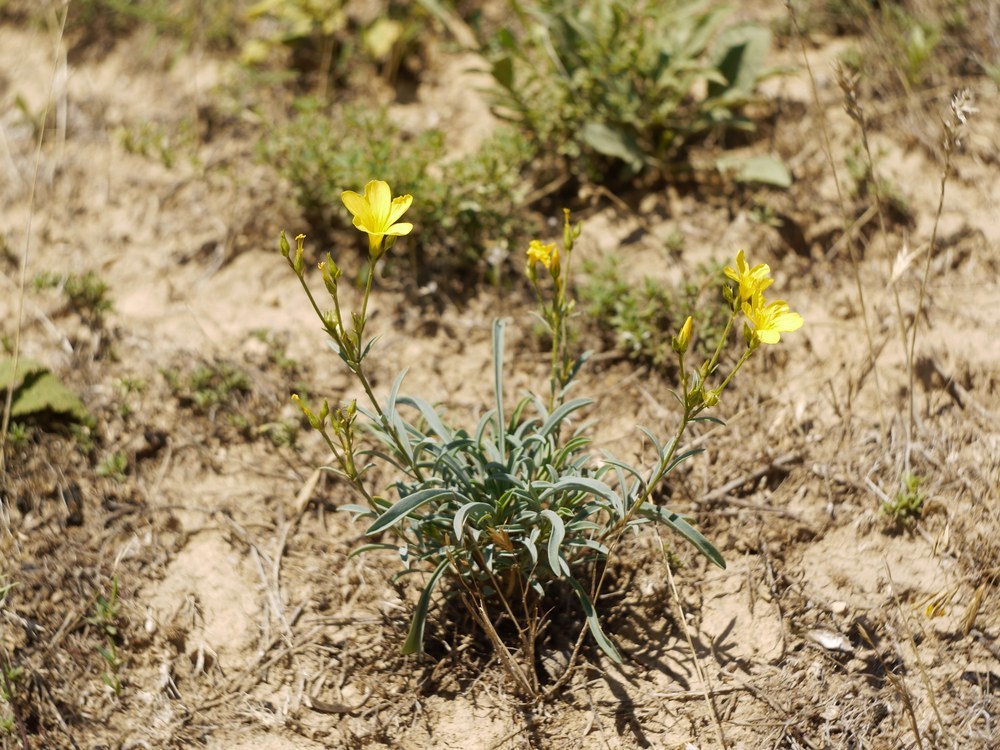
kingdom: Plantae
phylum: Tracheophyta
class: Magnoliopsida
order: Malpighiales
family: Linaceae
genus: Linum
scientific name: Linum tauricum
